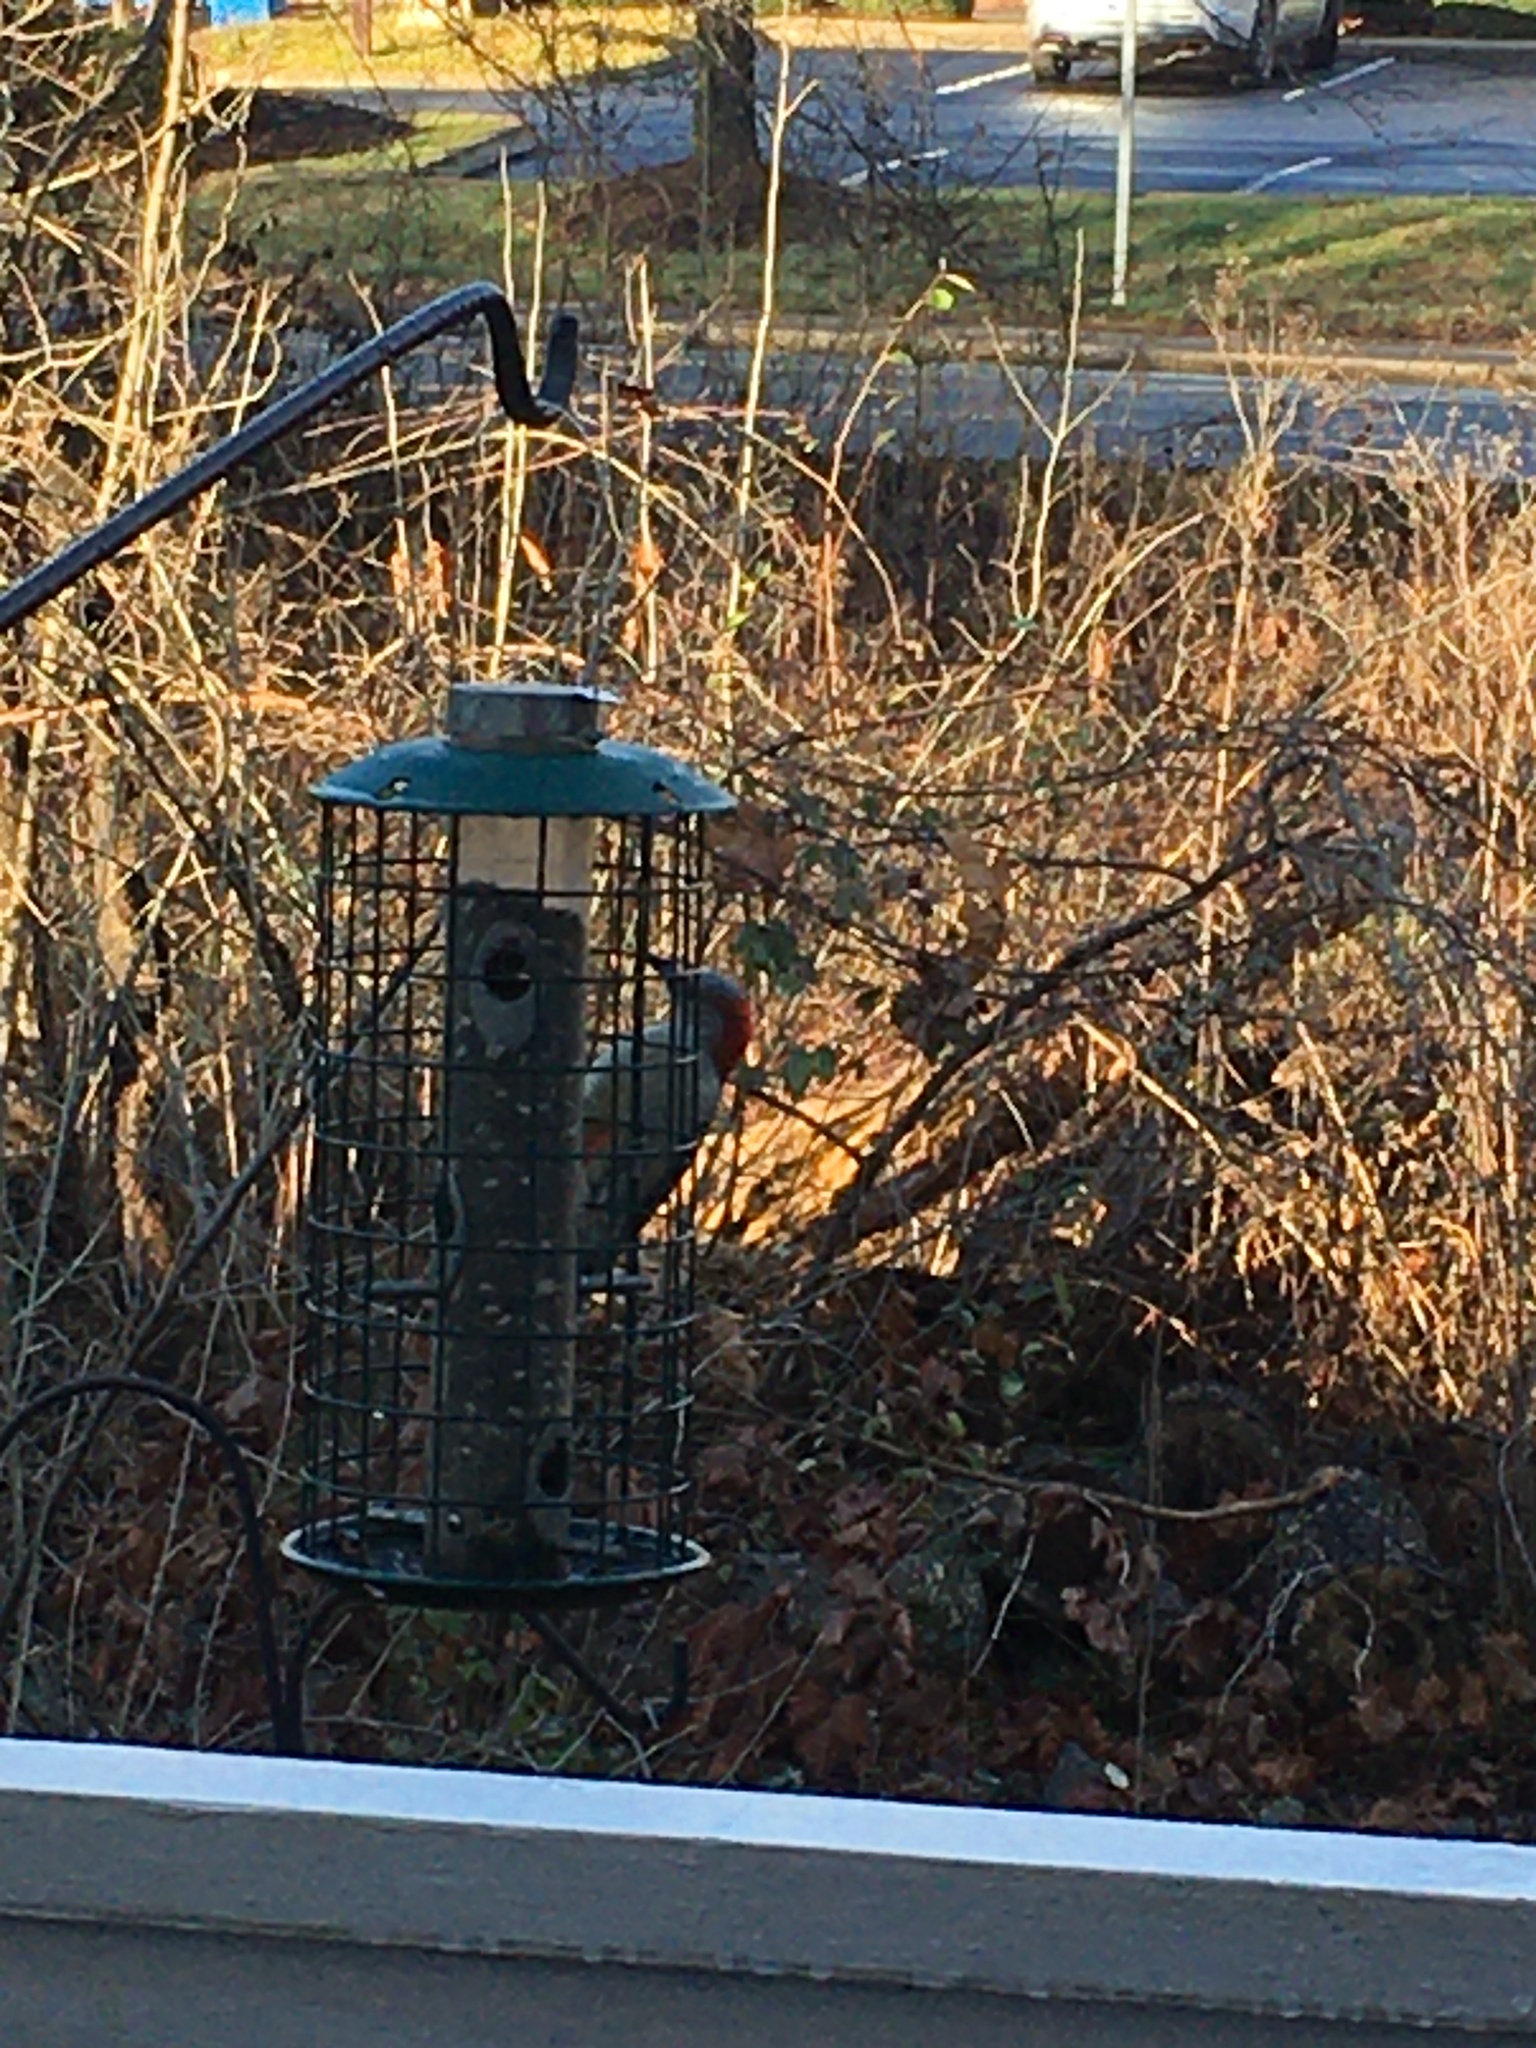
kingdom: Animalia
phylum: Chordata
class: Aves
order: Piciformes
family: Picidae
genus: Melanerpes
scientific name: Melanerpes carolinus
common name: Red-bellied woodpecker
